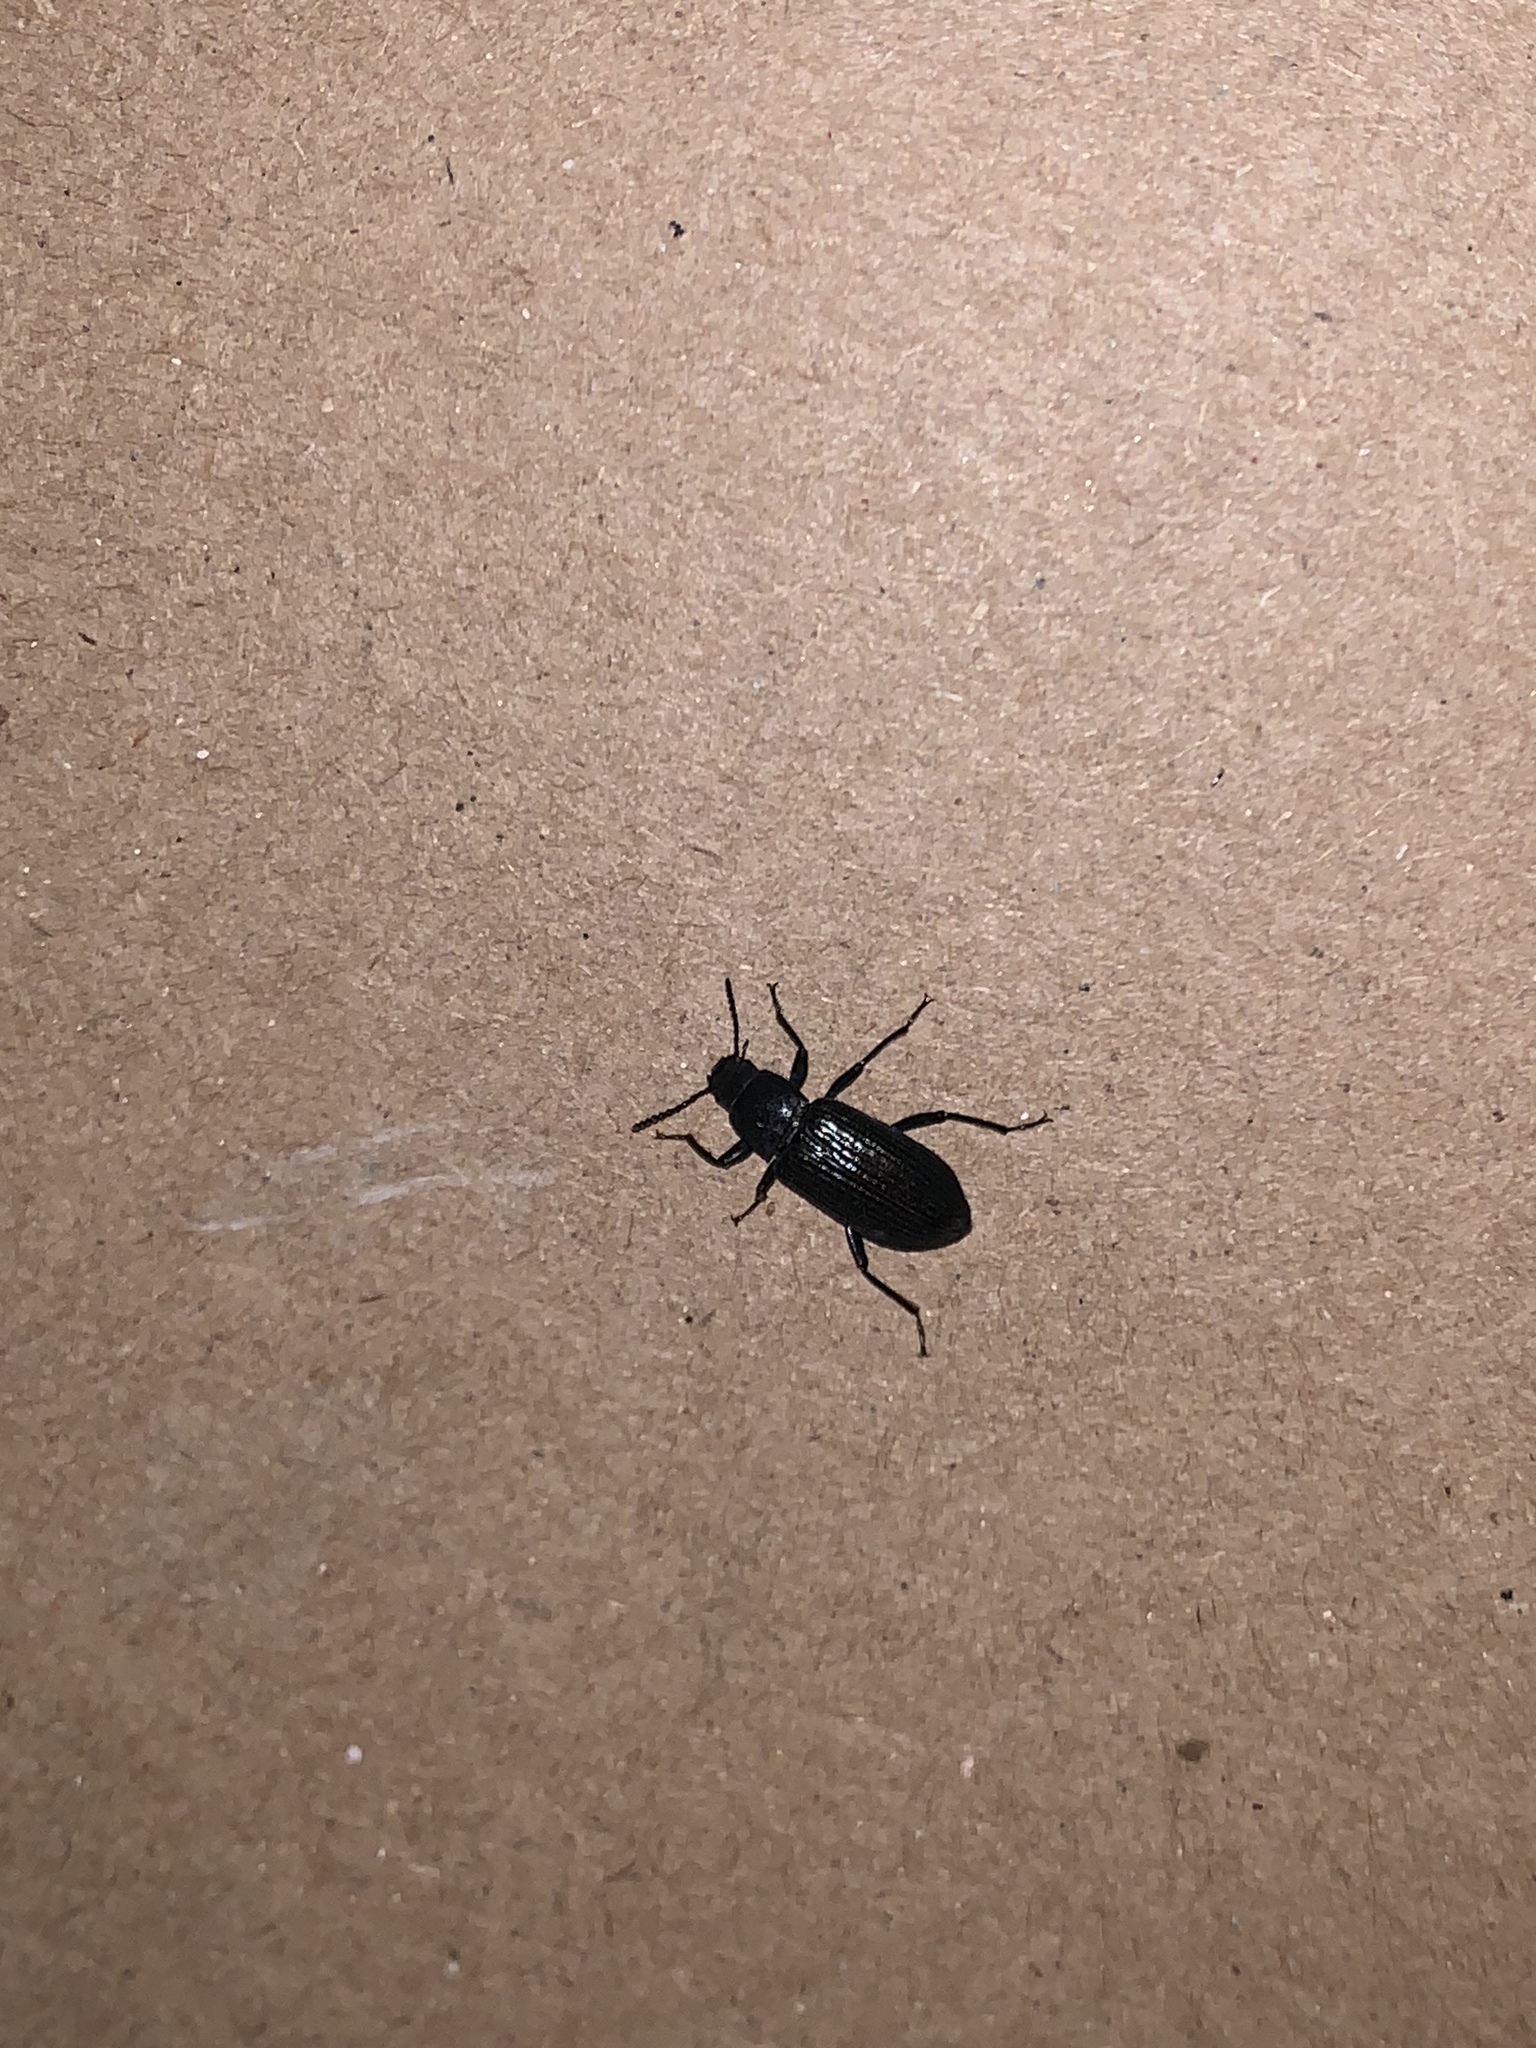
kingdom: Animalia
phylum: Arthropoda
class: Insecta
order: Coleoptera
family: Tenebrionidae
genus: Xylopinus
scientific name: Xylopinus saperdoides
